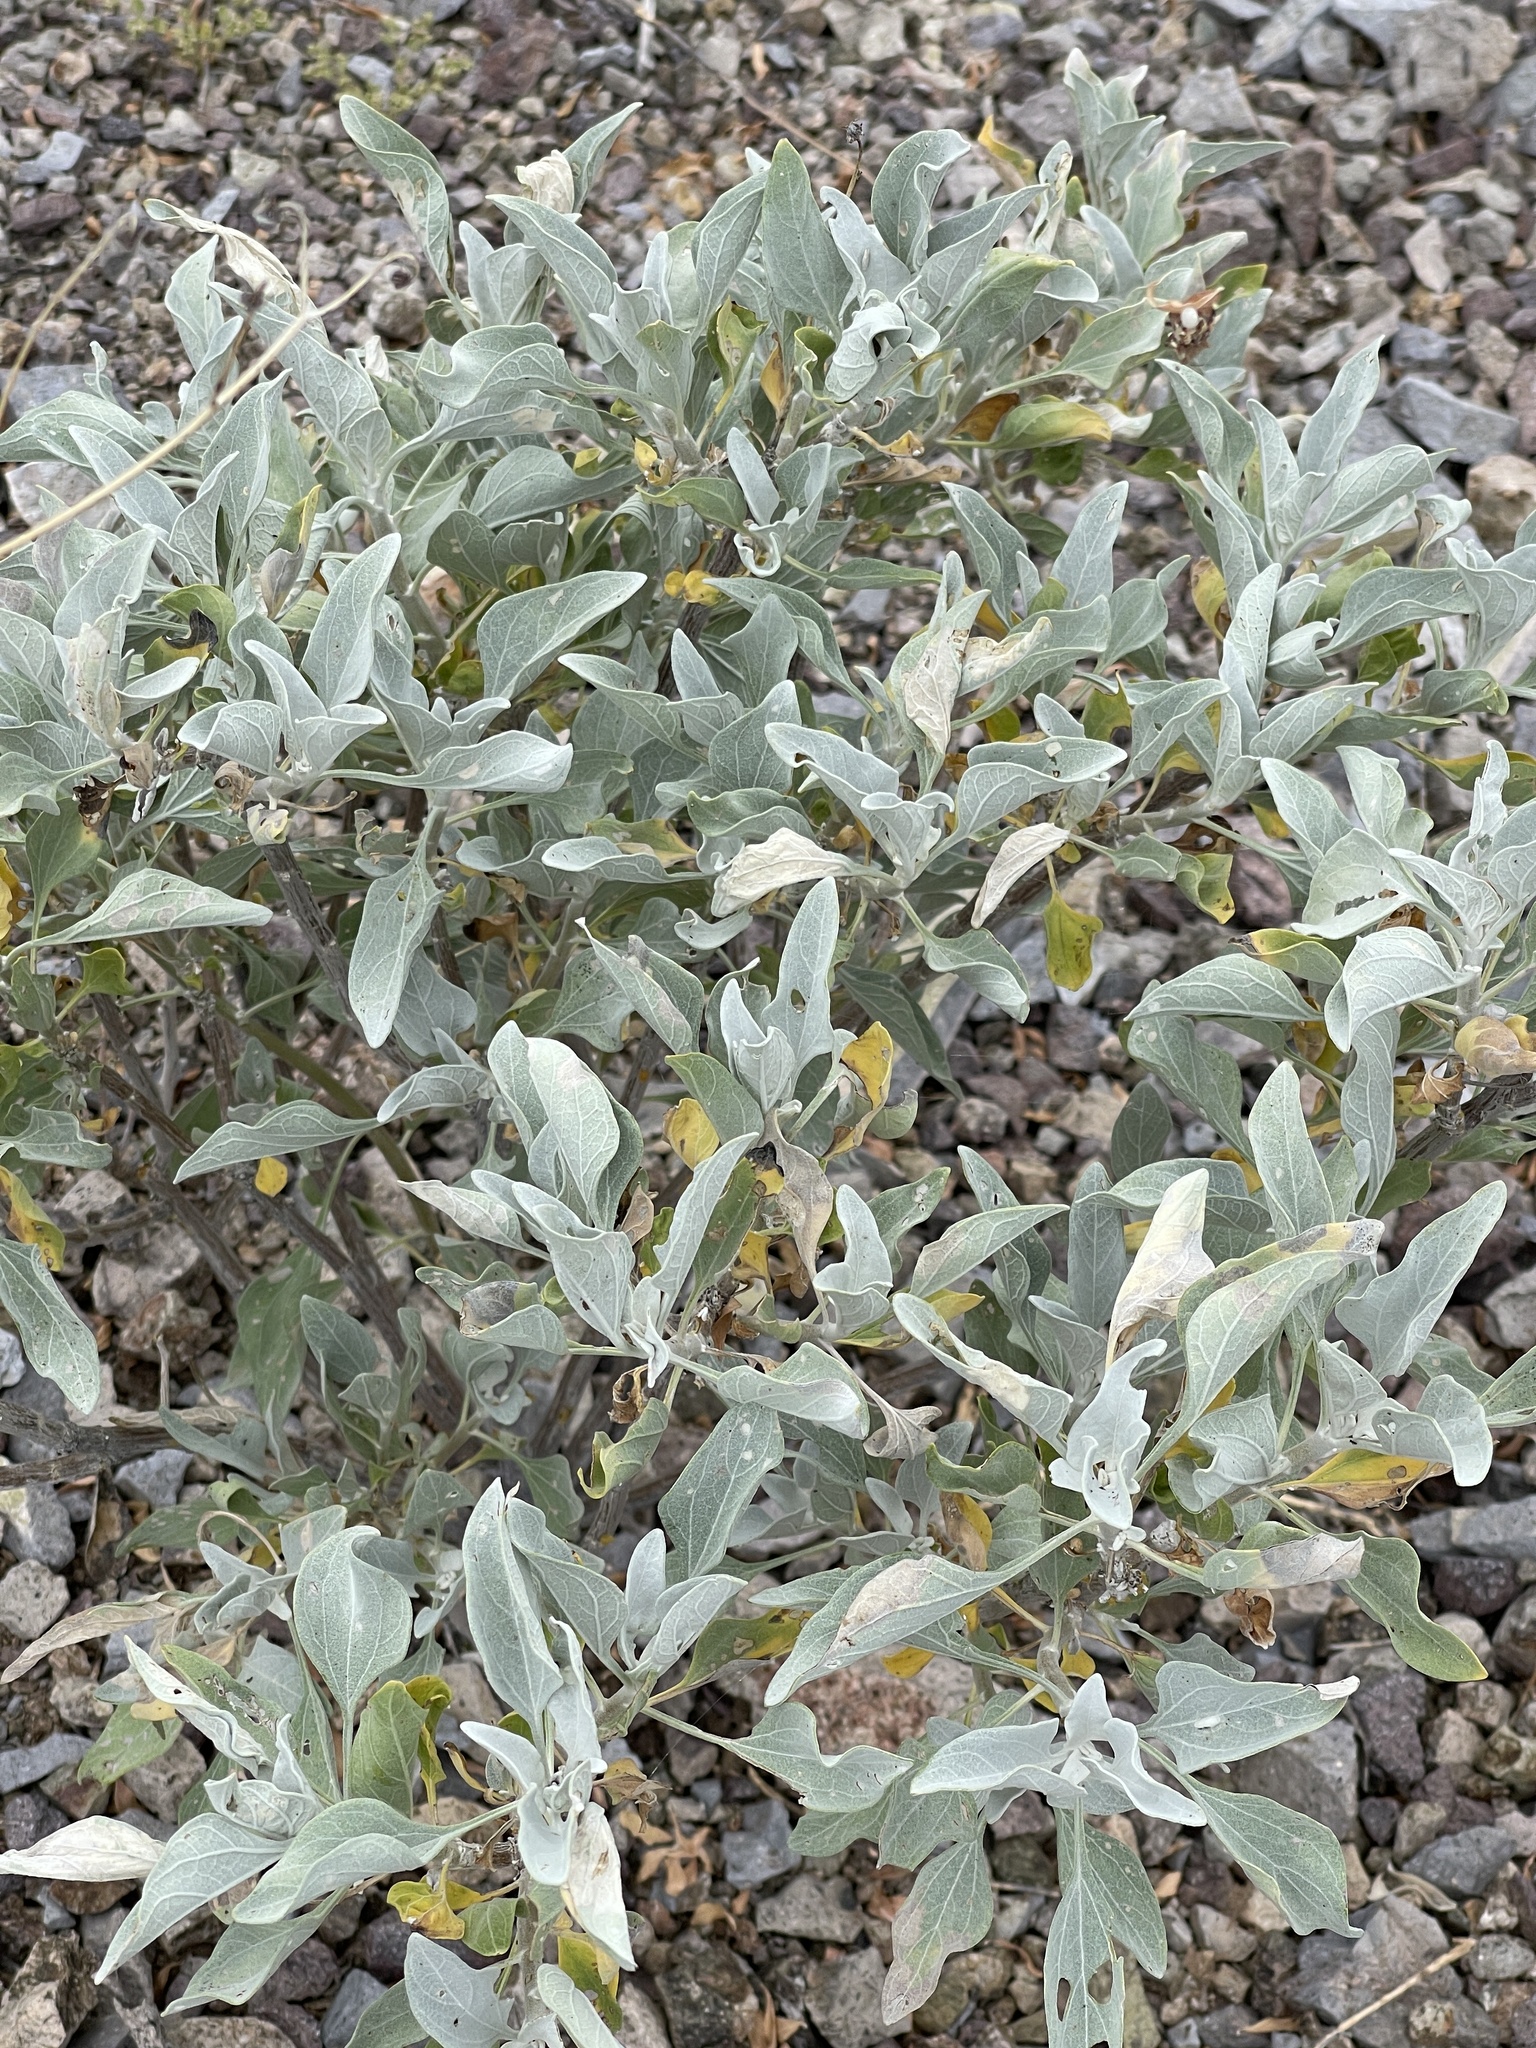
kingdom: Plantae
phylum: Tracheophyta
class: Magnoliopsida
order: Asterales
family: Asteraceae
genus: Encelia
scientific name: Encelia farinosa
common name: Brittlebush
